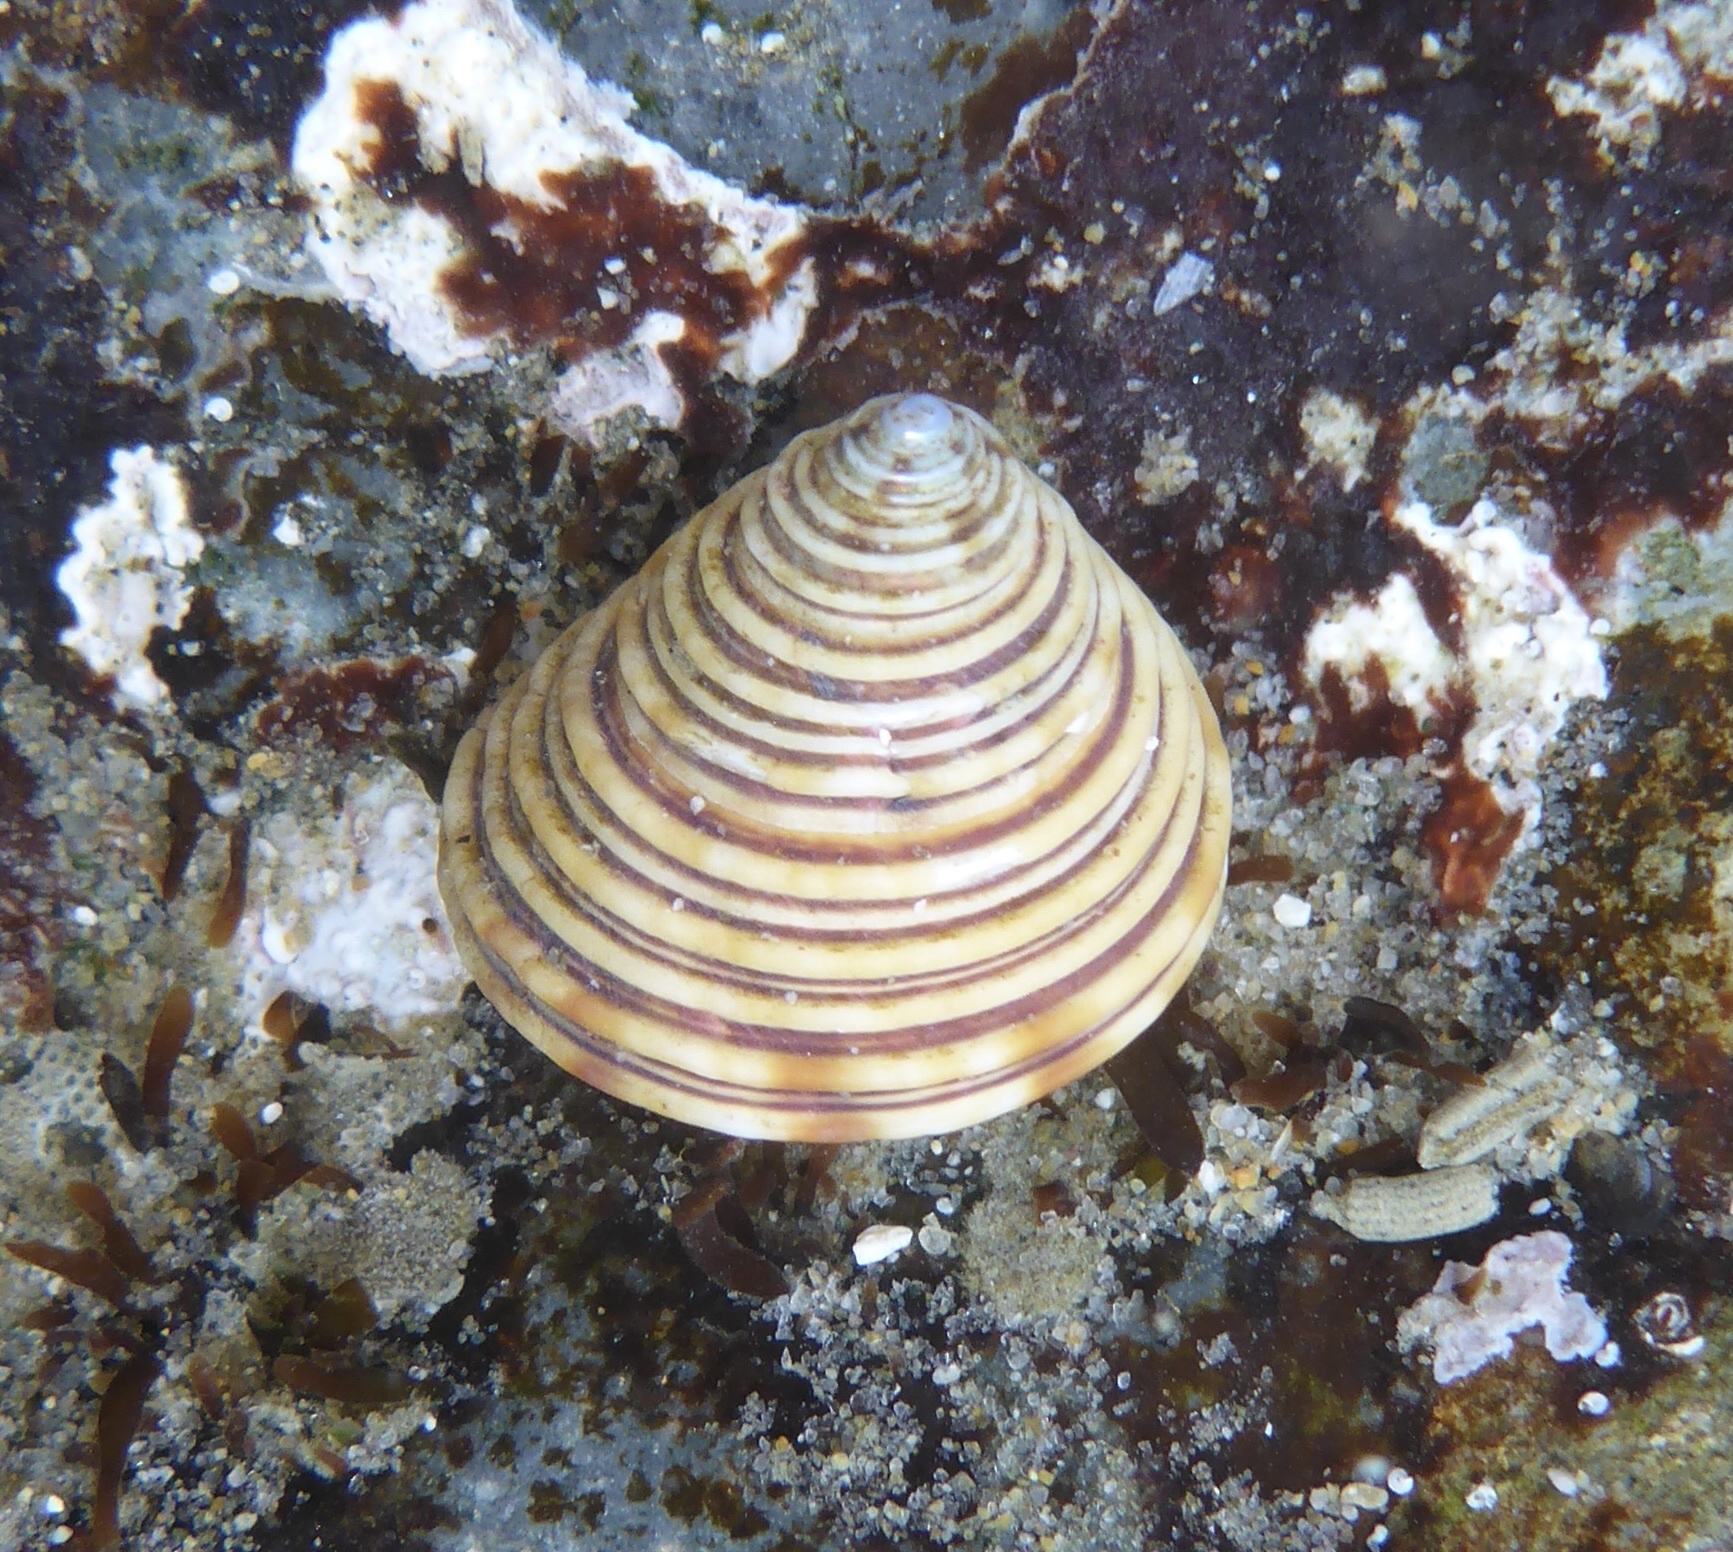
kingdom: Animalia
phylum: Mollusca
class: Gastropoda
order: Trochida
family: Calliostomatidae
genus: Calliostoma
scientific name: Calliostoma canaliculatum
